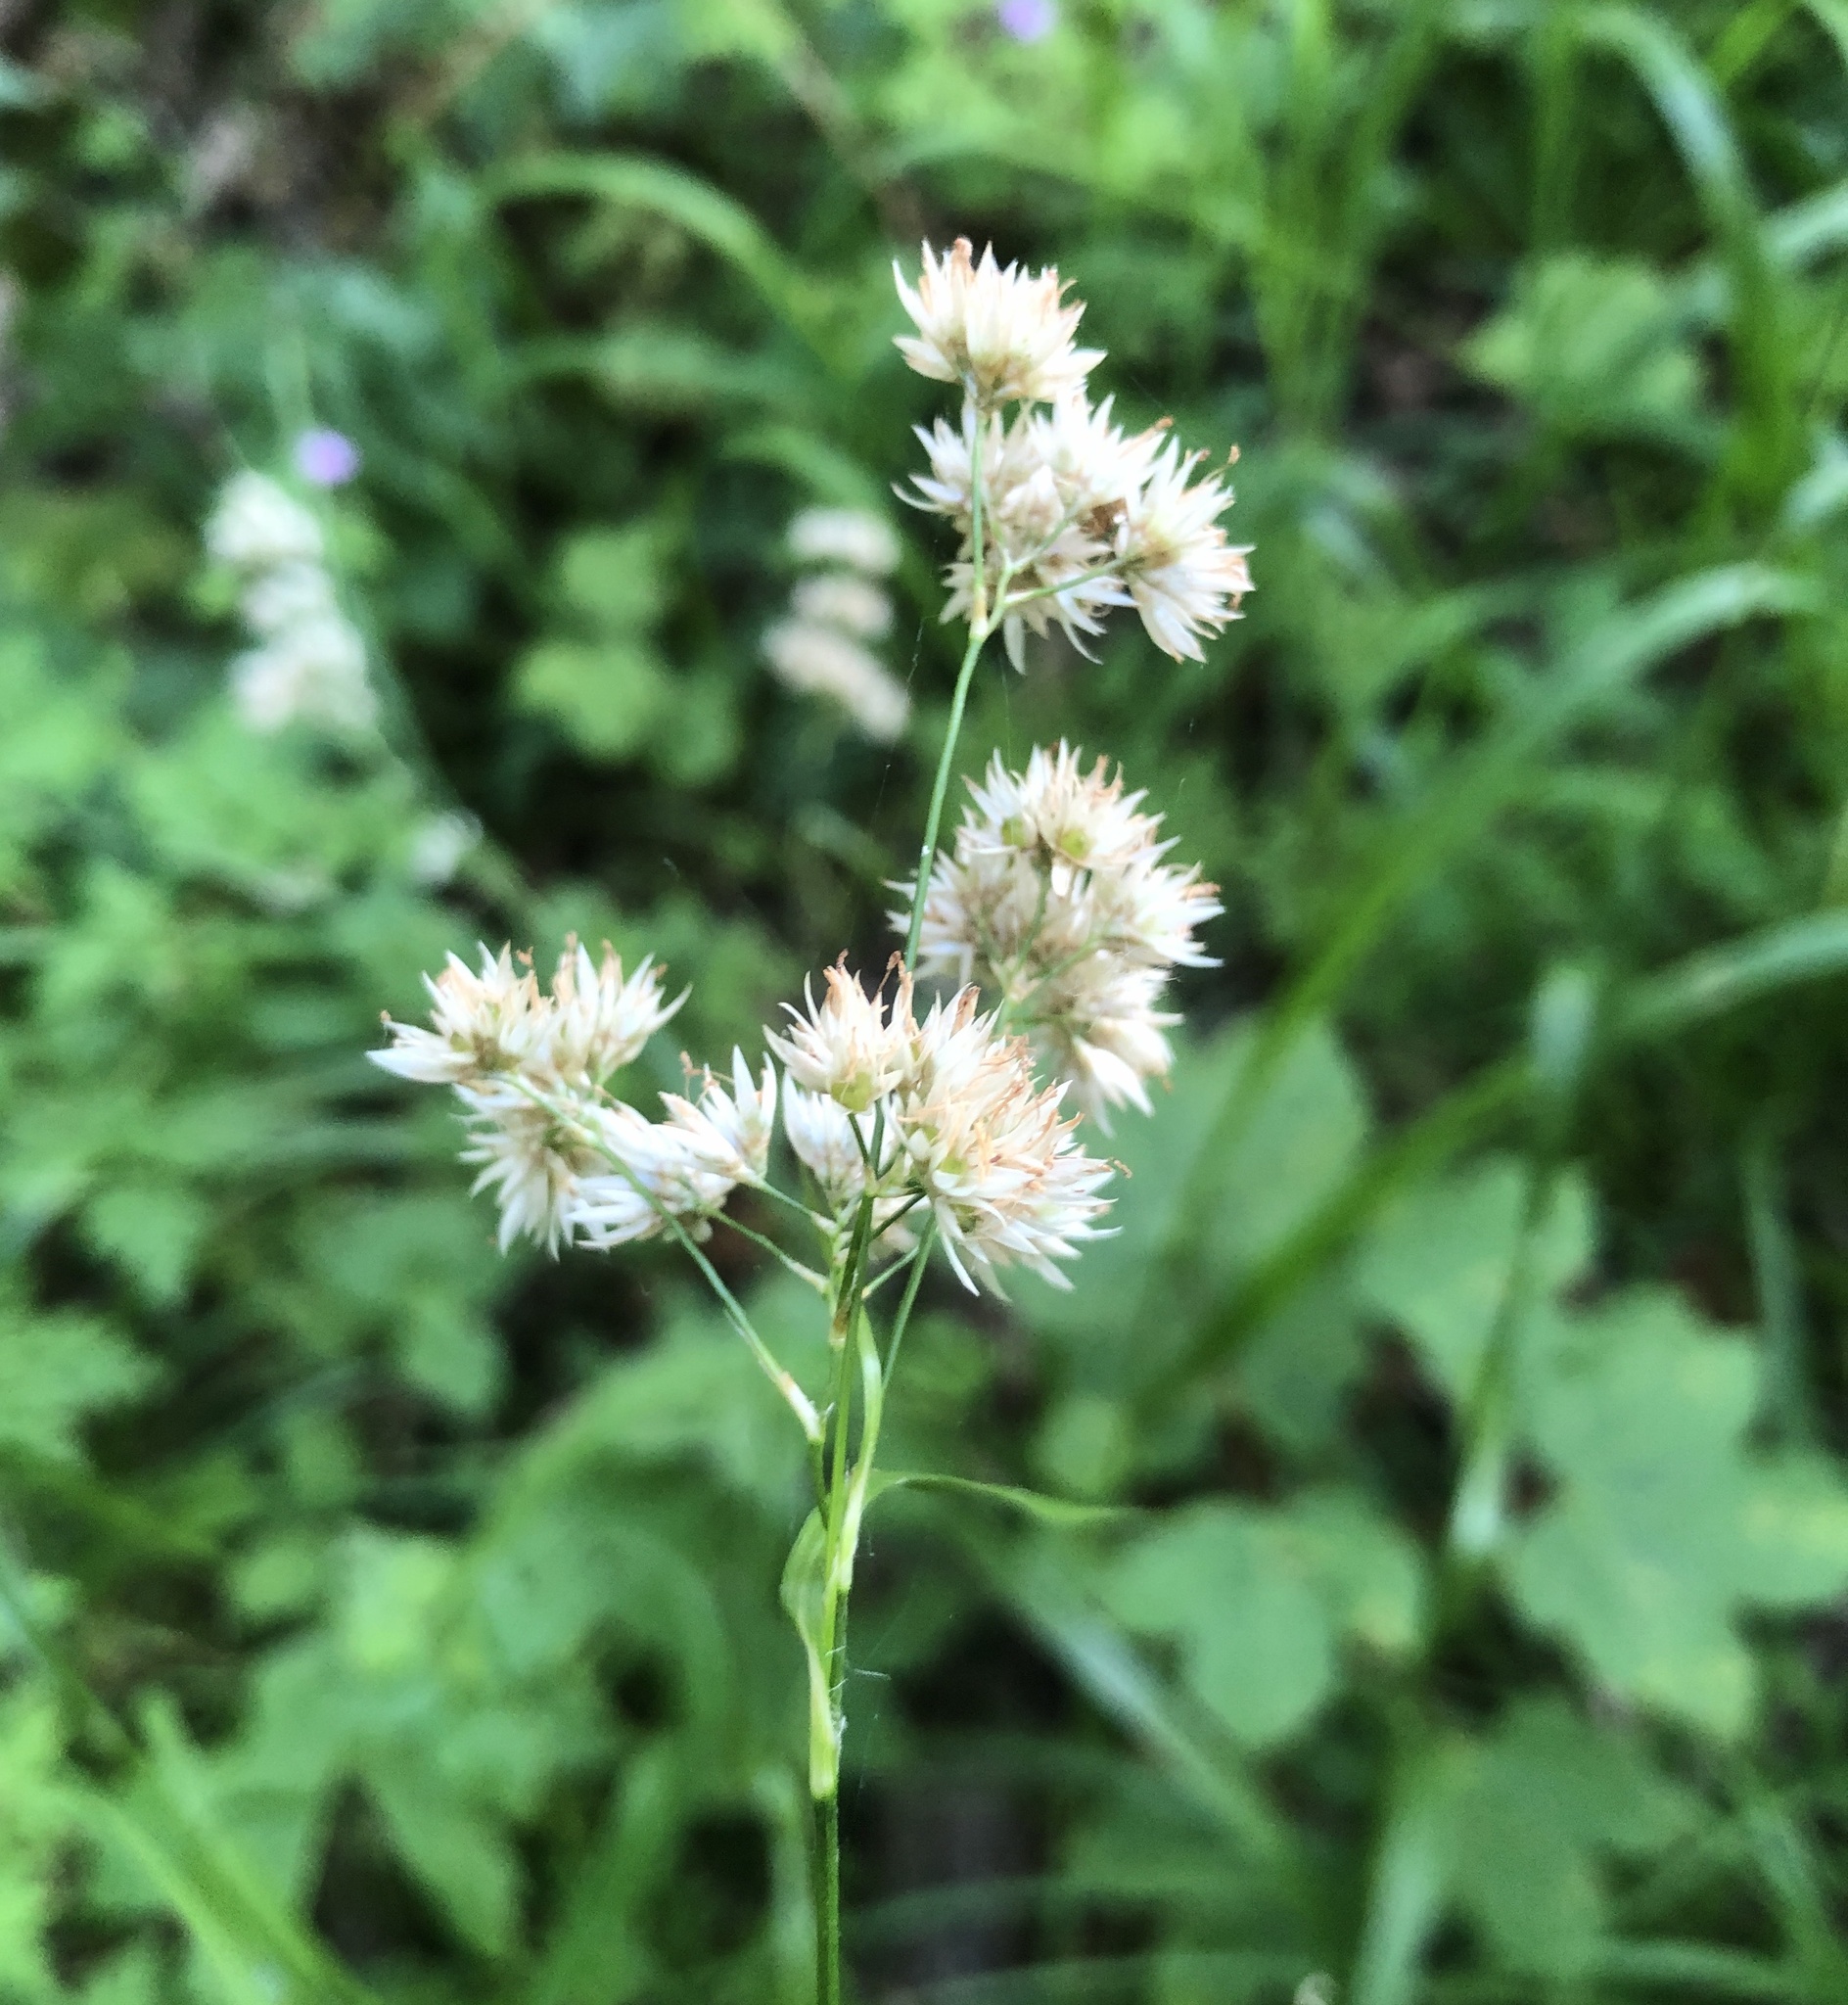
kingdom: Plantae
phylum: Tracheophyta
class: Liliopsida
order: Poales
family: Juncaceae
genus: Luzula
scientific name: Luzula nivea
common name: Snow-white wood-rush
